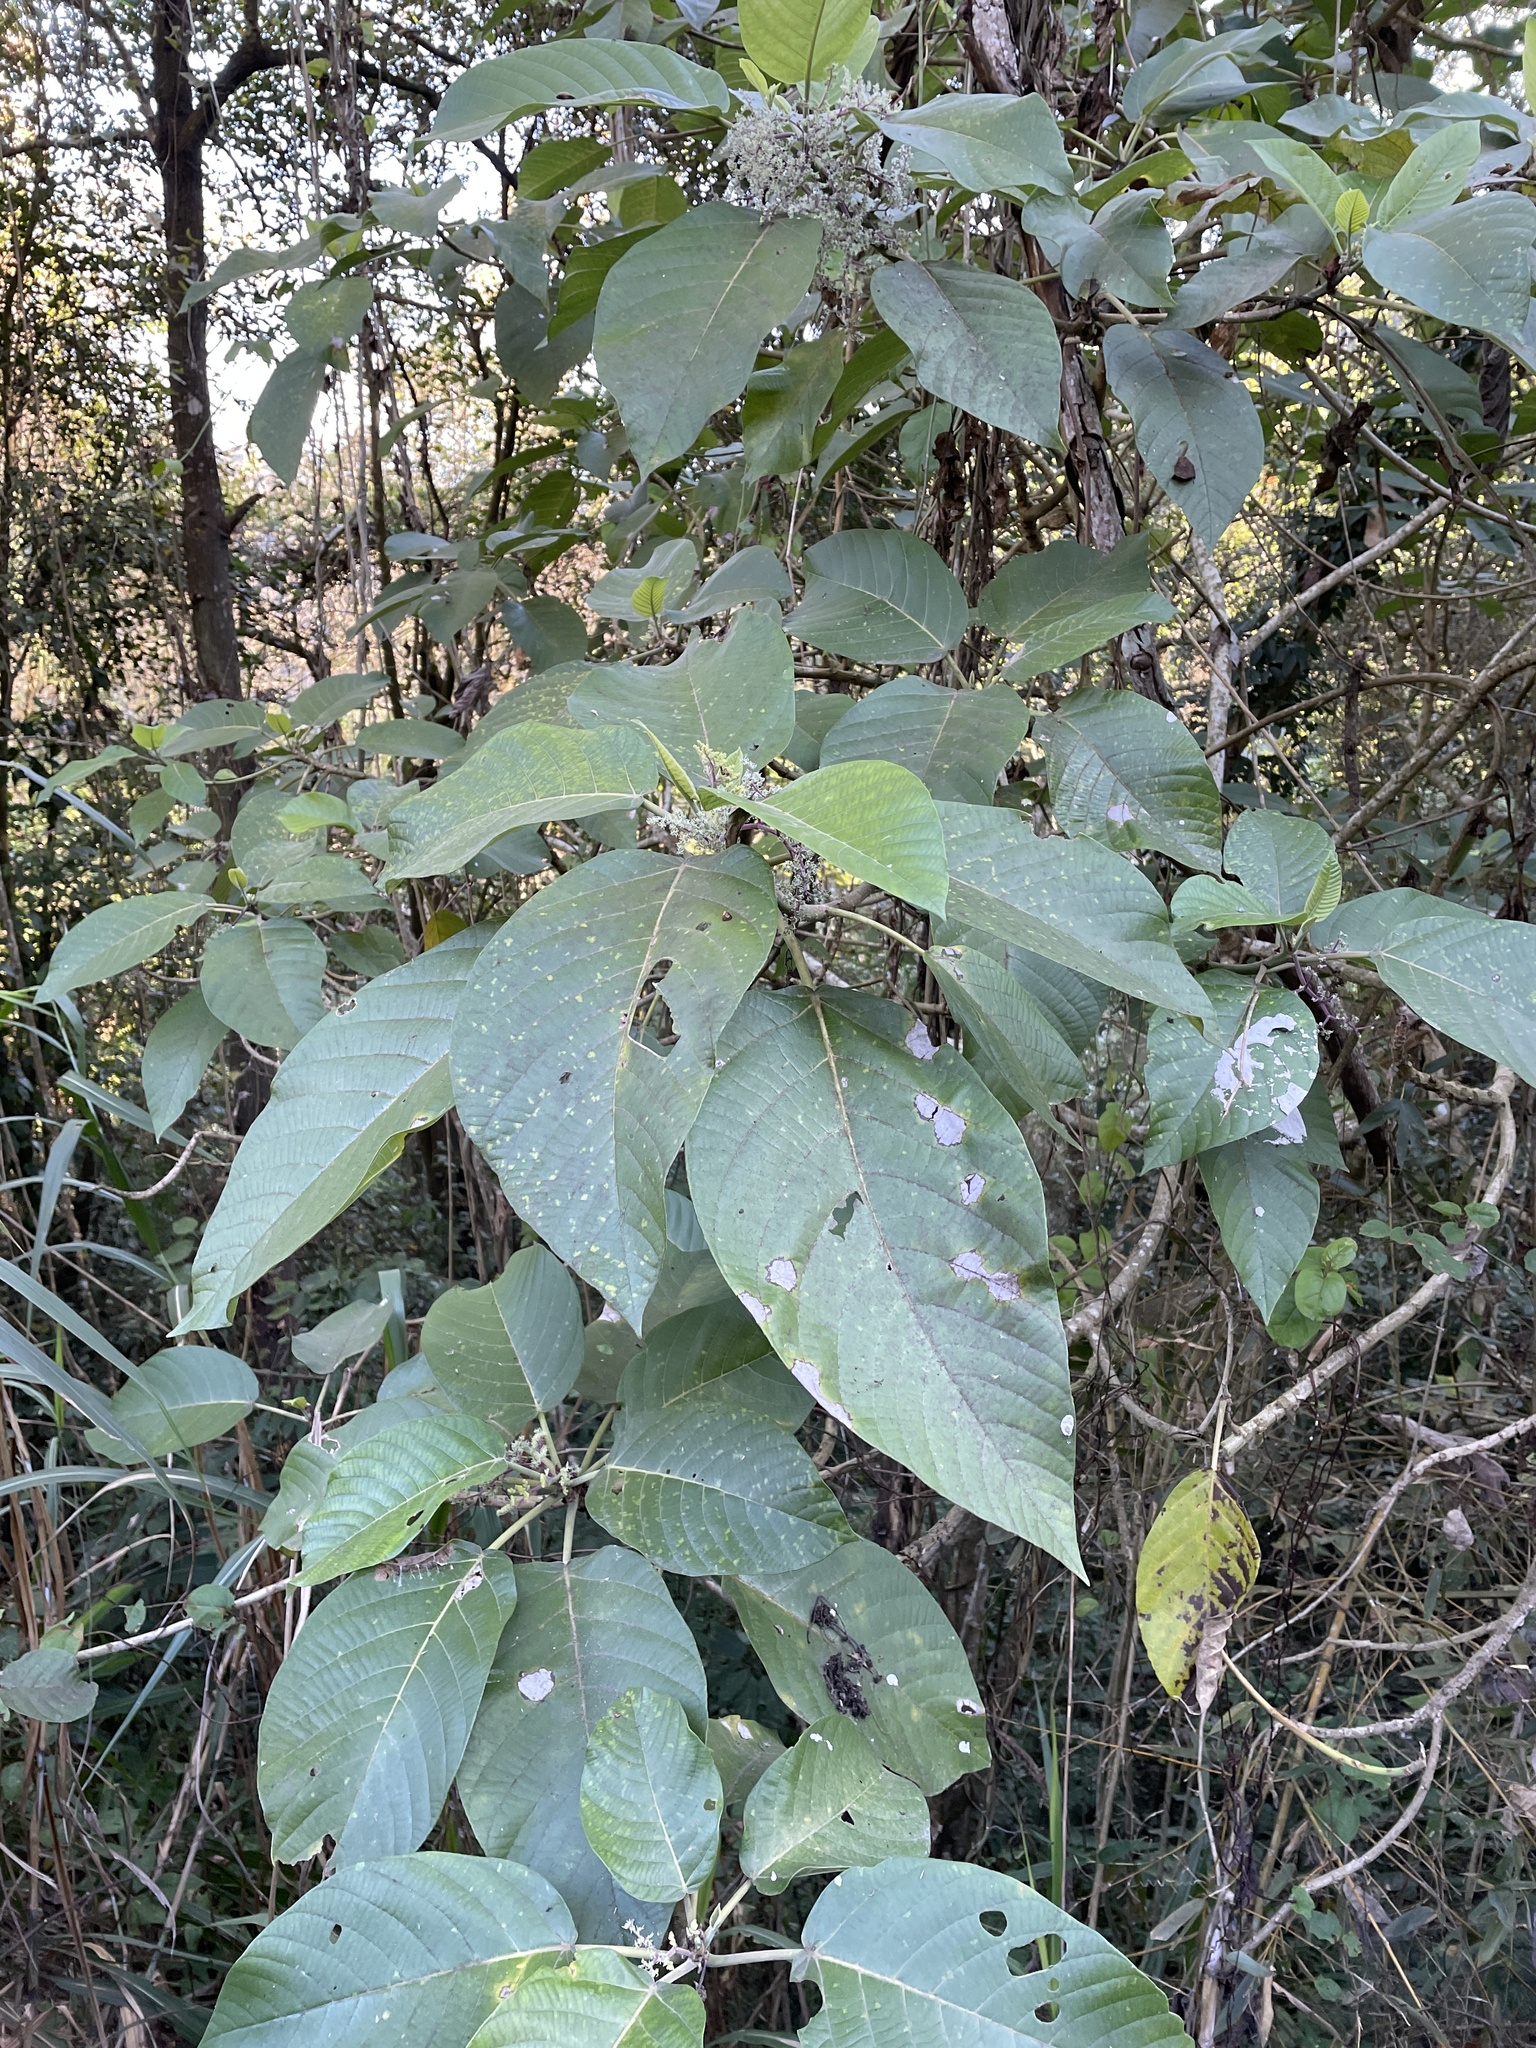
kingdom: Plantae
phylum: Tracheophyta
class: Magnoliopsida
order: Rosales
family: Urticaceae
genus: Dendrocnide
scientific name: Dendrocnide meyeniana
